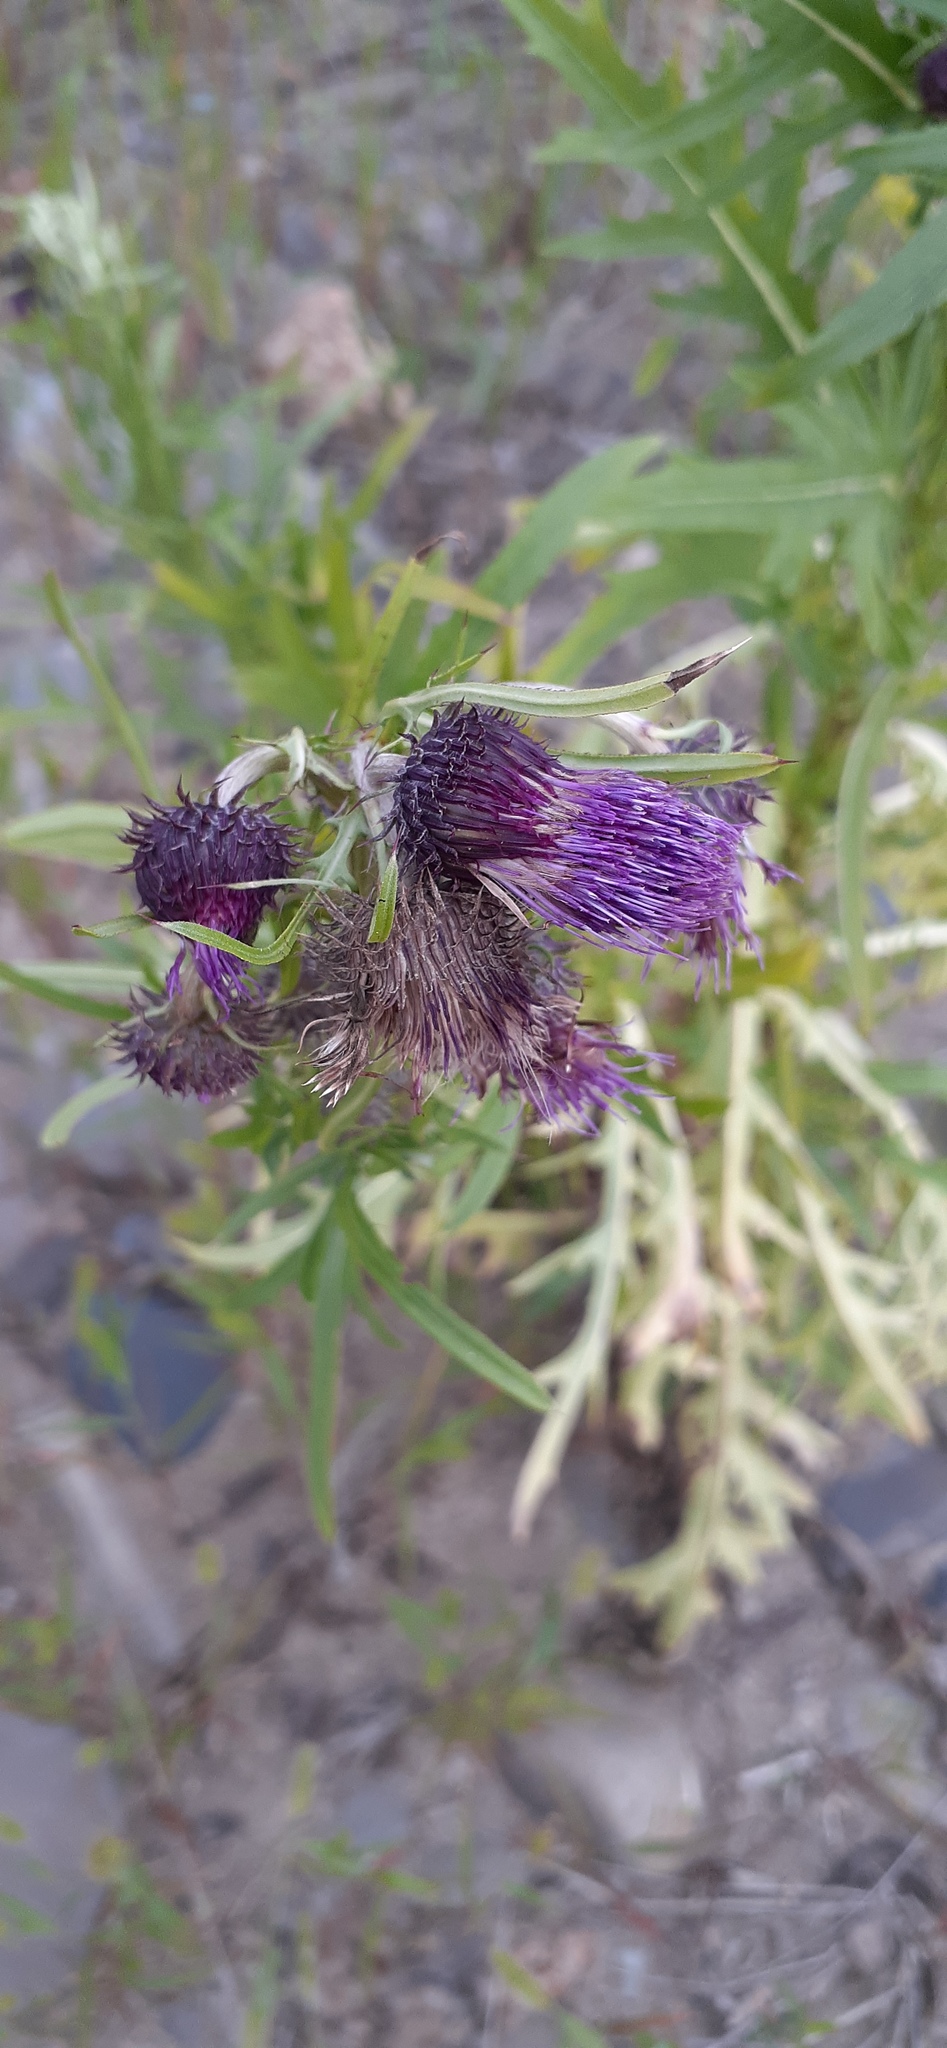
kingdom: Plantae
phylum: Tracheophyta
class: Magnoliopsida
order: Asterales
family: Asteraceae
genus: Cirsium
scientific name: Cirsium pendulum
